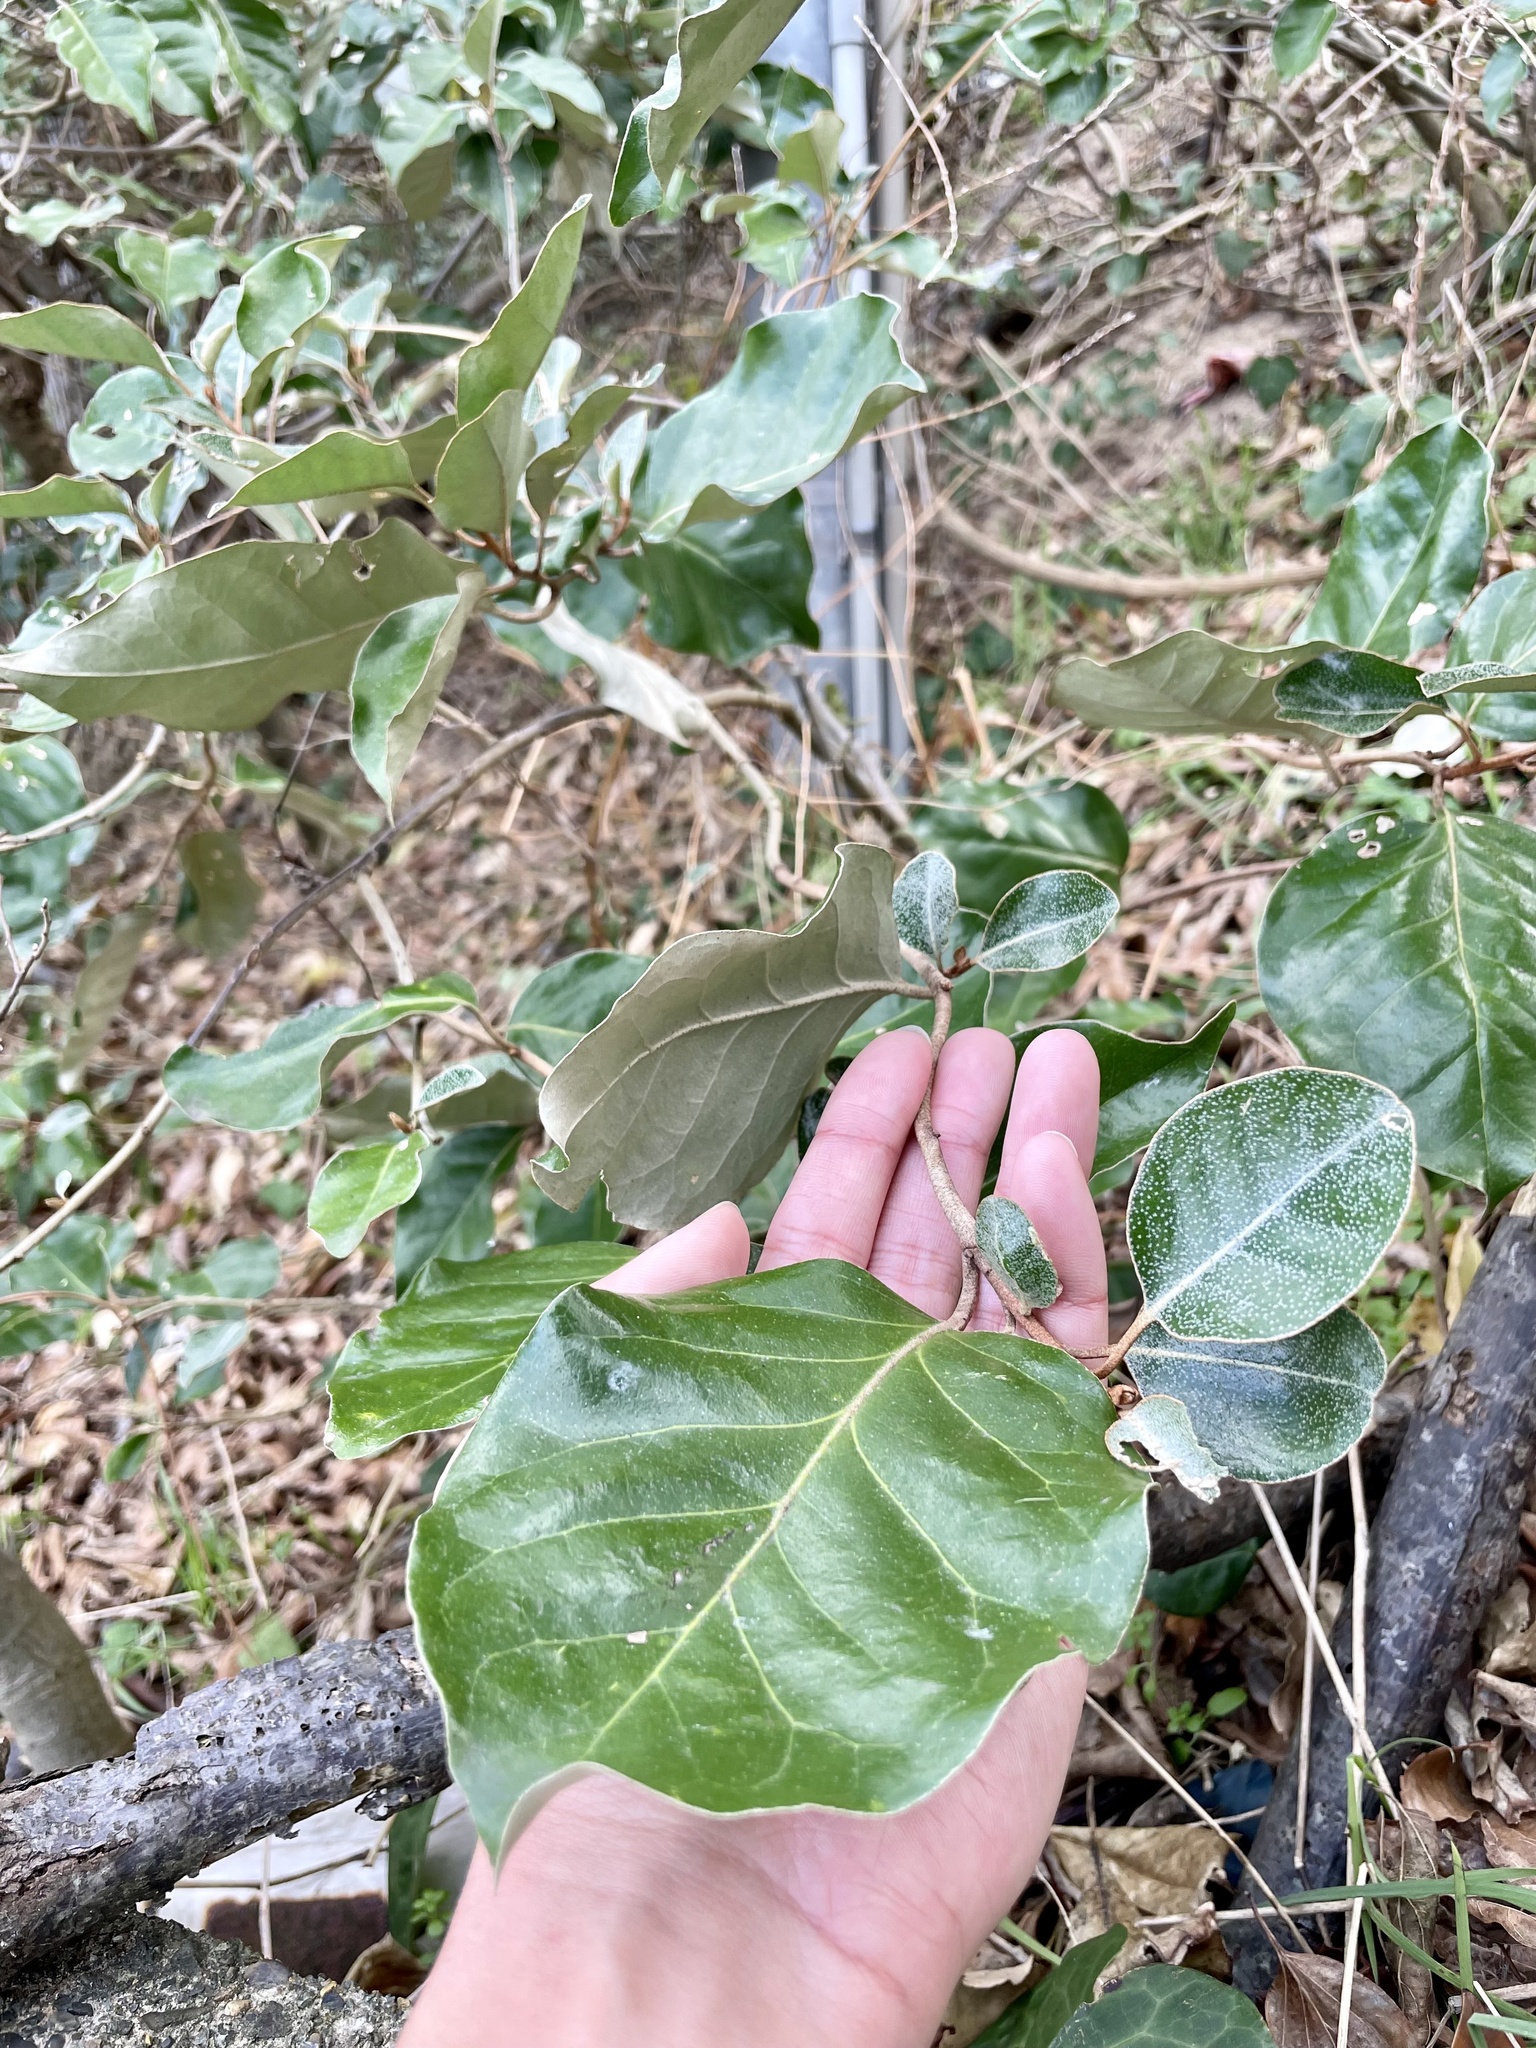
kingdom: Plantae
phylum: Tracheophyta
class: Magnoliopsida
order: Rosales
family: Elaeagnaceae
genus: Elaeagnus
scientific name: Elaeagnus macrophylla
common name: Broad-leaved oleaster
